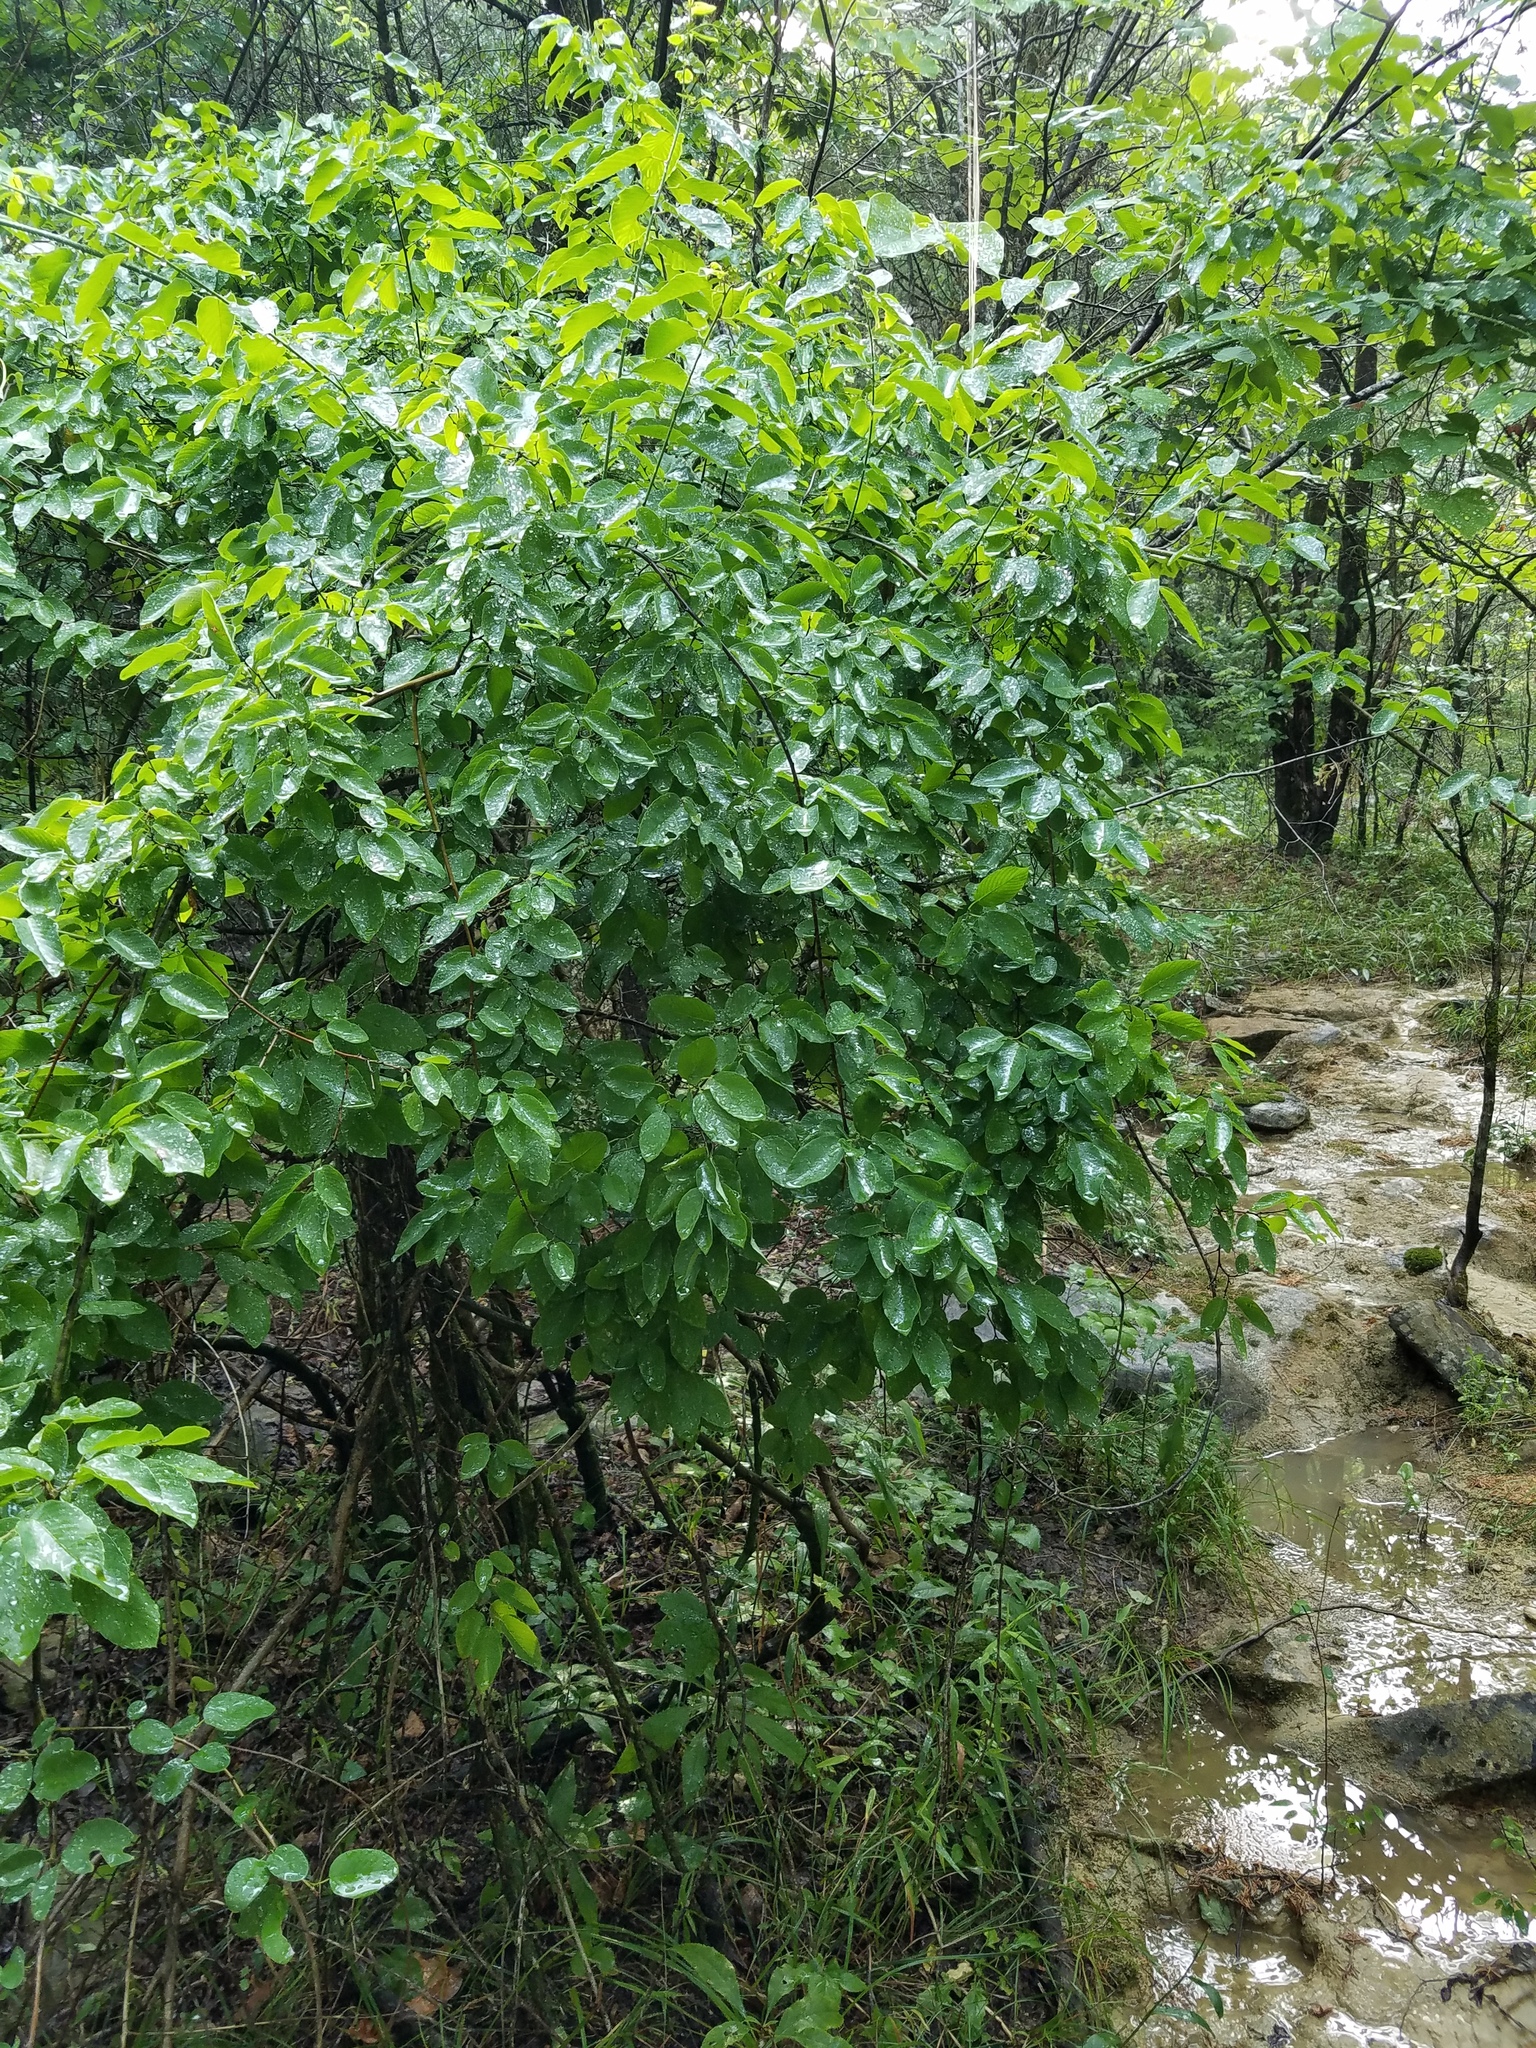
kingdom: Plantae
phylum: Tracheophyta
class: Magnoliopsida
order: Rosales
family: Rhamnaceae
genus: Berchemia
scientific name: Berchemia scandens
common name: Supplejack
